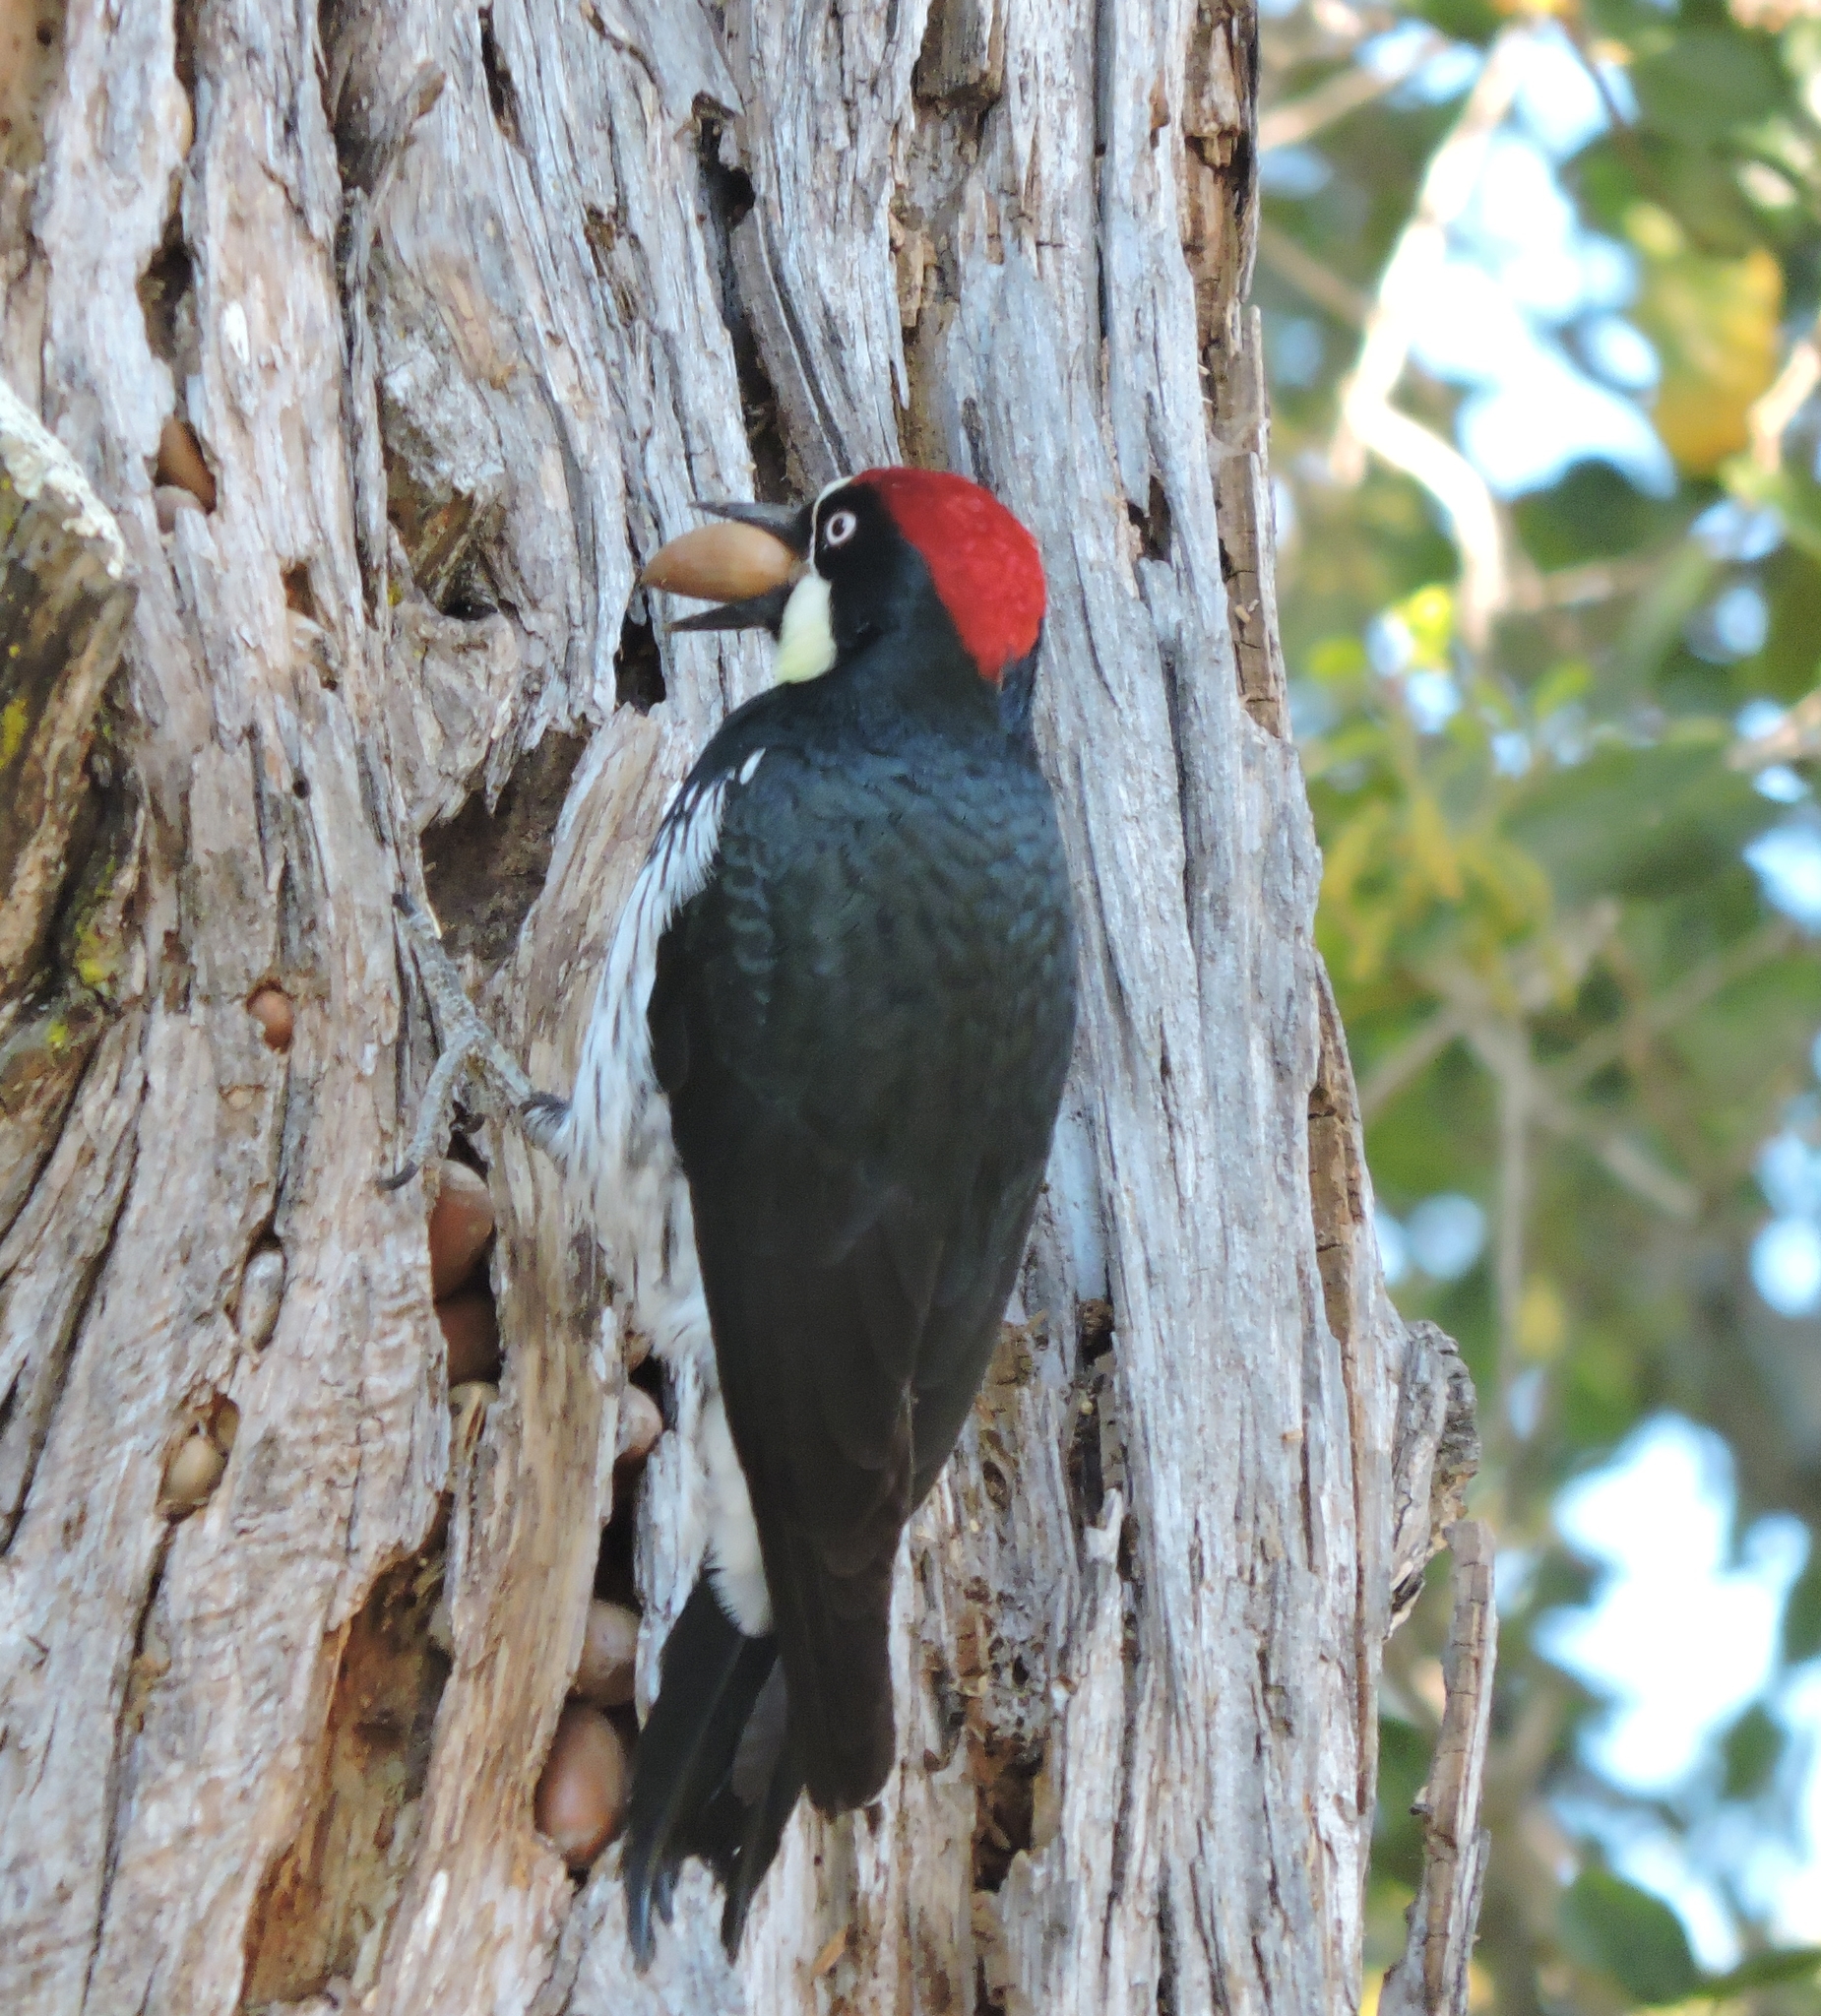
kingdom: Animalia
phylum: Chordata
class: Aves
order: Piciformes
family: Picidae
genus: Melanerpes
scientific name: Melanerpes formicivorus
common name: Acorn woodpecker
